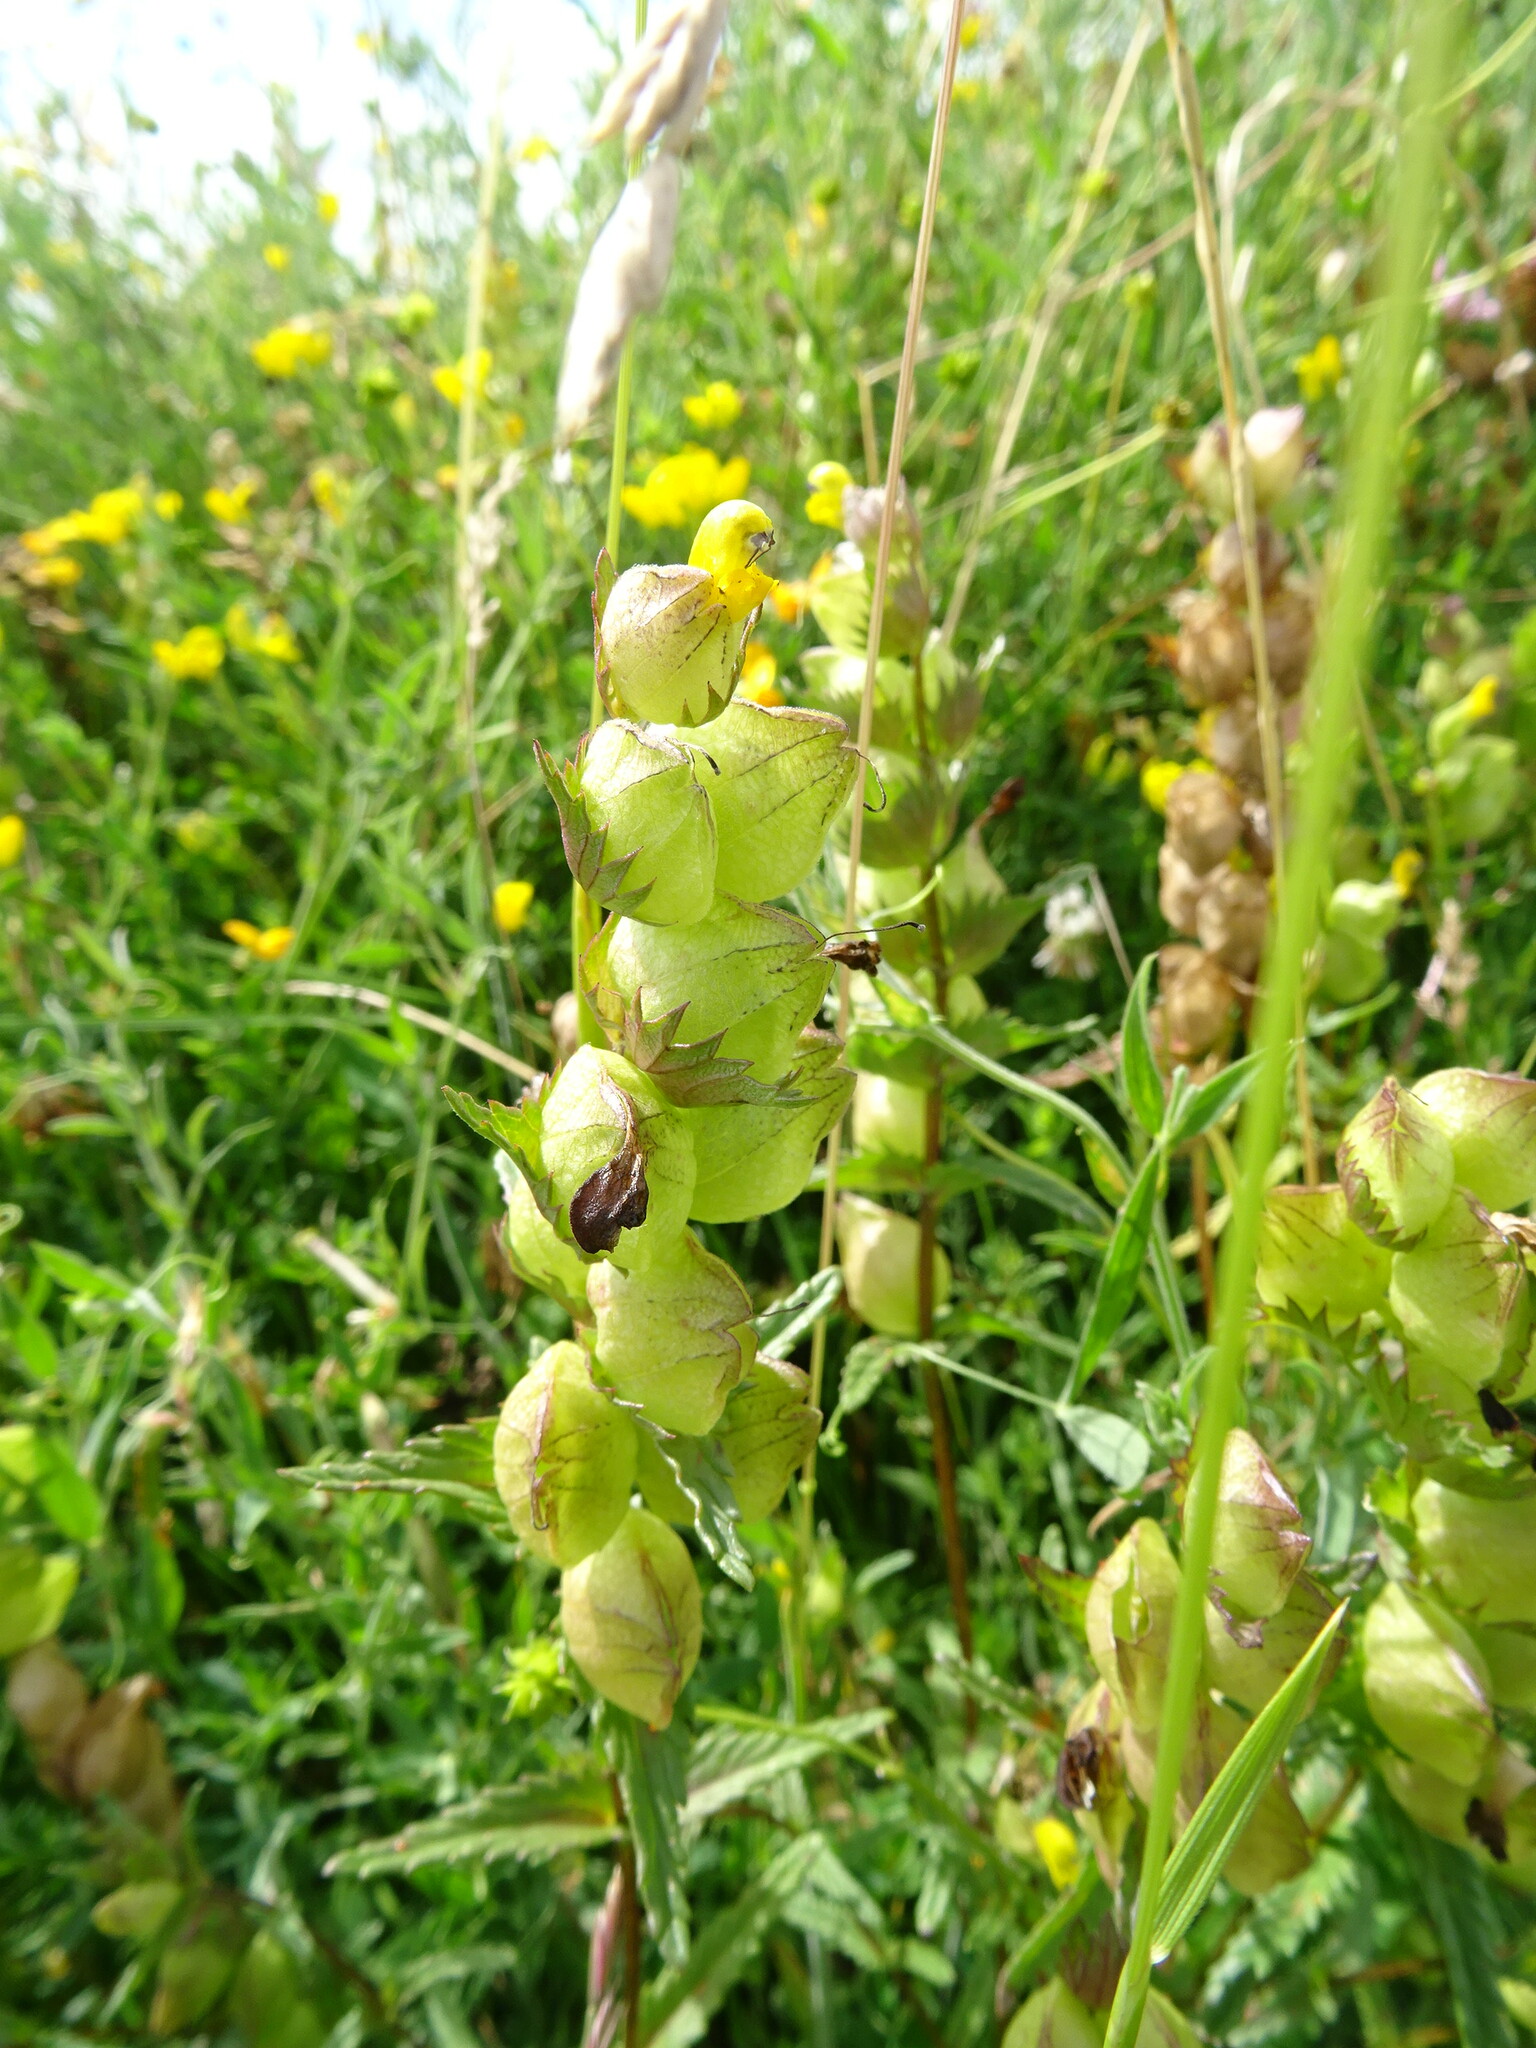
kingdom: Plantae
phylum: Tracheophyta
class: Magnoliopsida
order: Lamiales
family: Orobanchaceae
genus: Rhinanthus
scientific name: Rhinanthus minor
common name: Yellow-rattle
